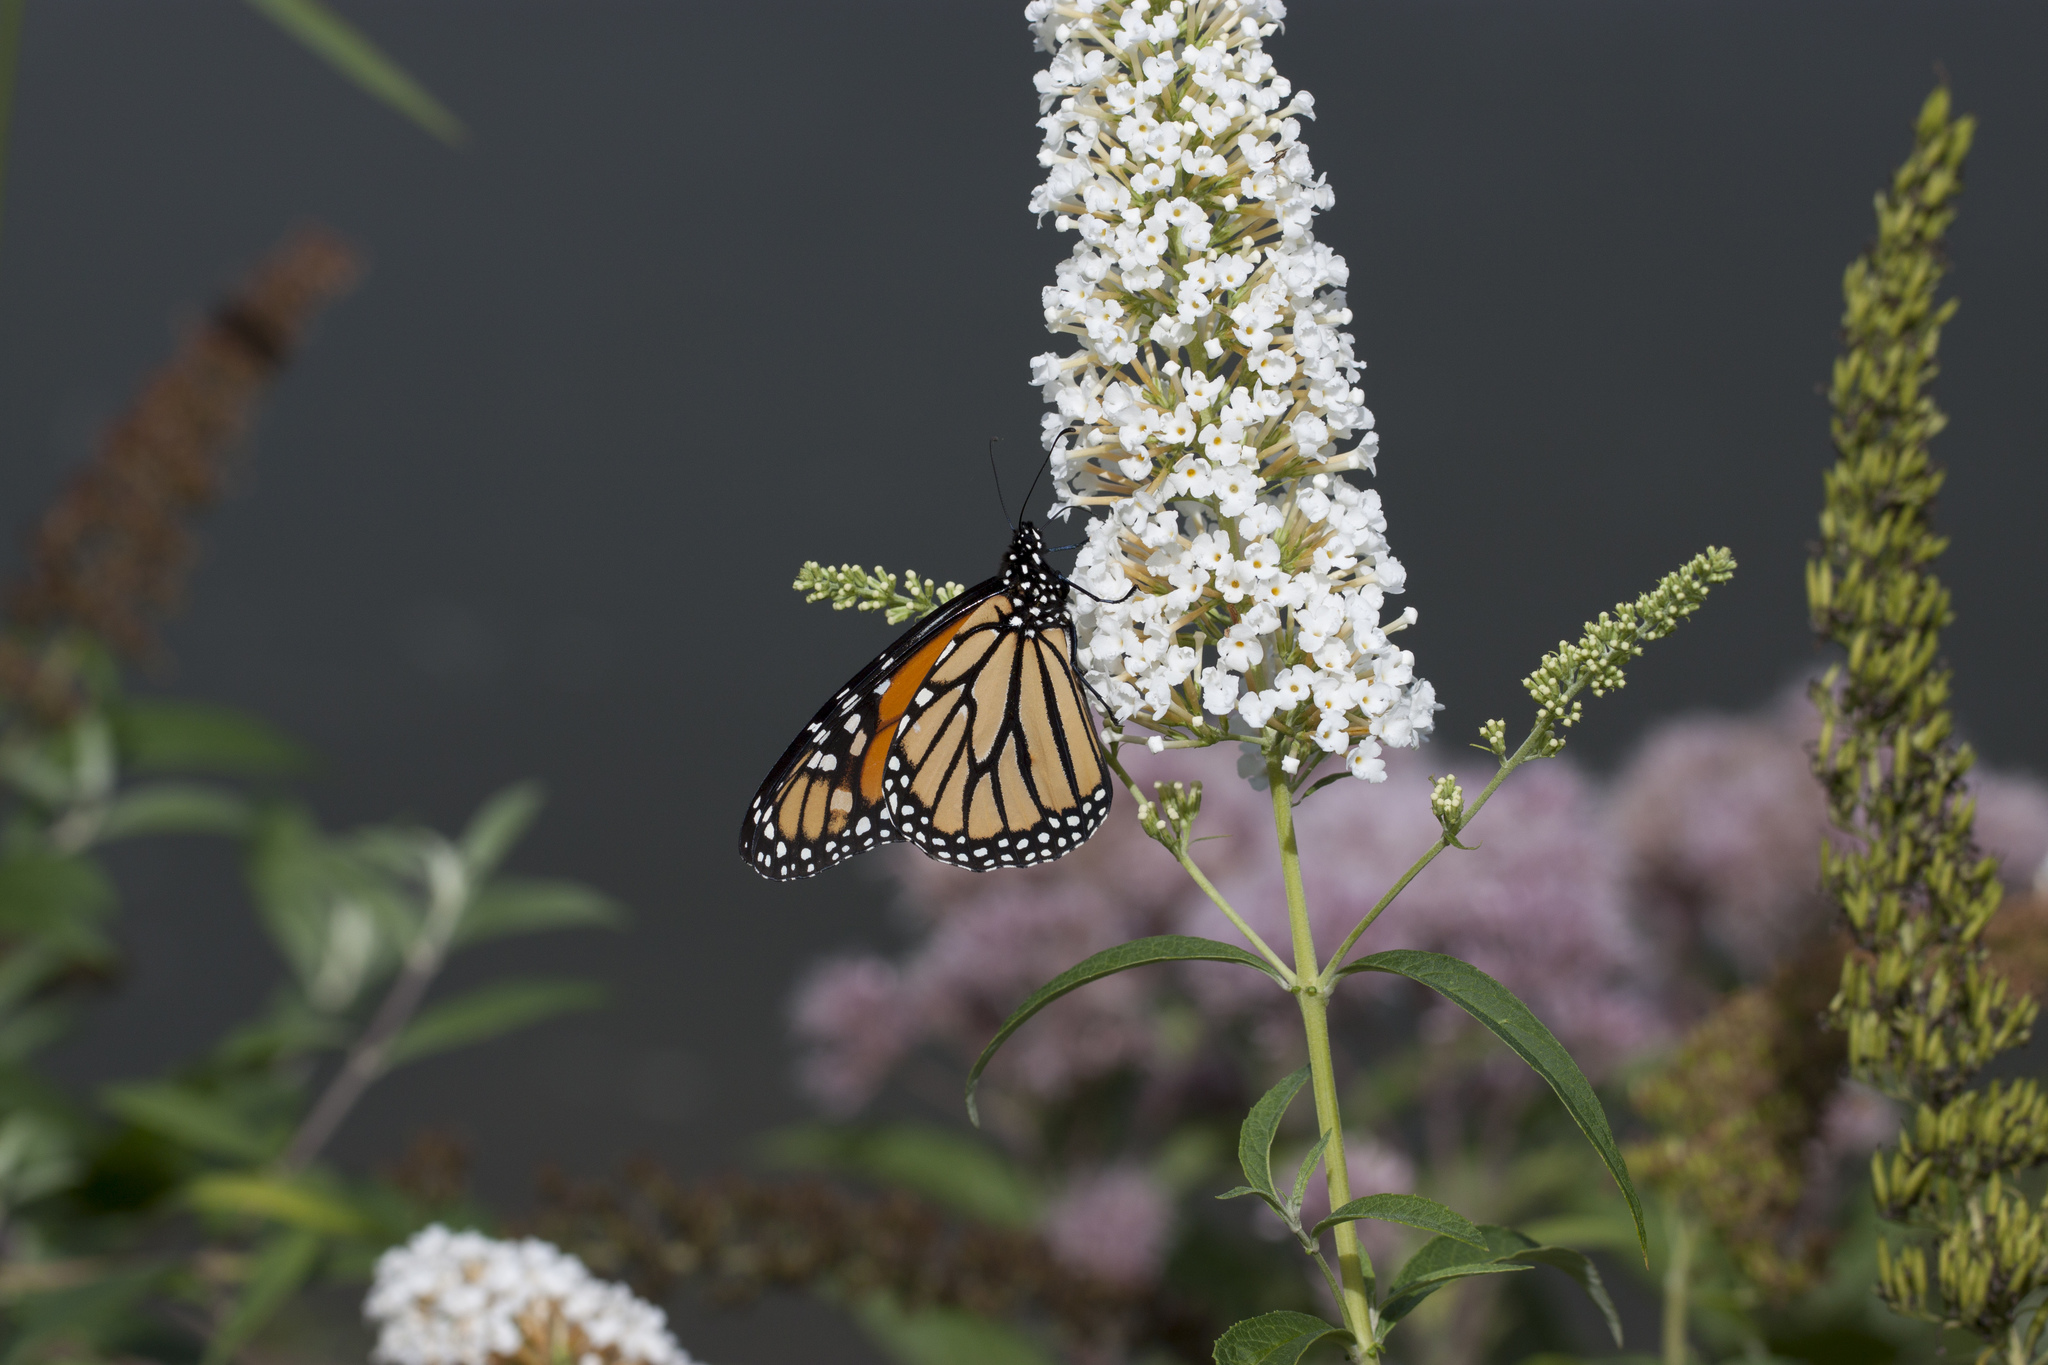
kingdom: Animalia
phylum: Arthropoda
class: Insecta
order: Lepidoptera
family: Nymphalidae
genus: Danaus
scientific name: Danaus plexippus
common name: Monarch
